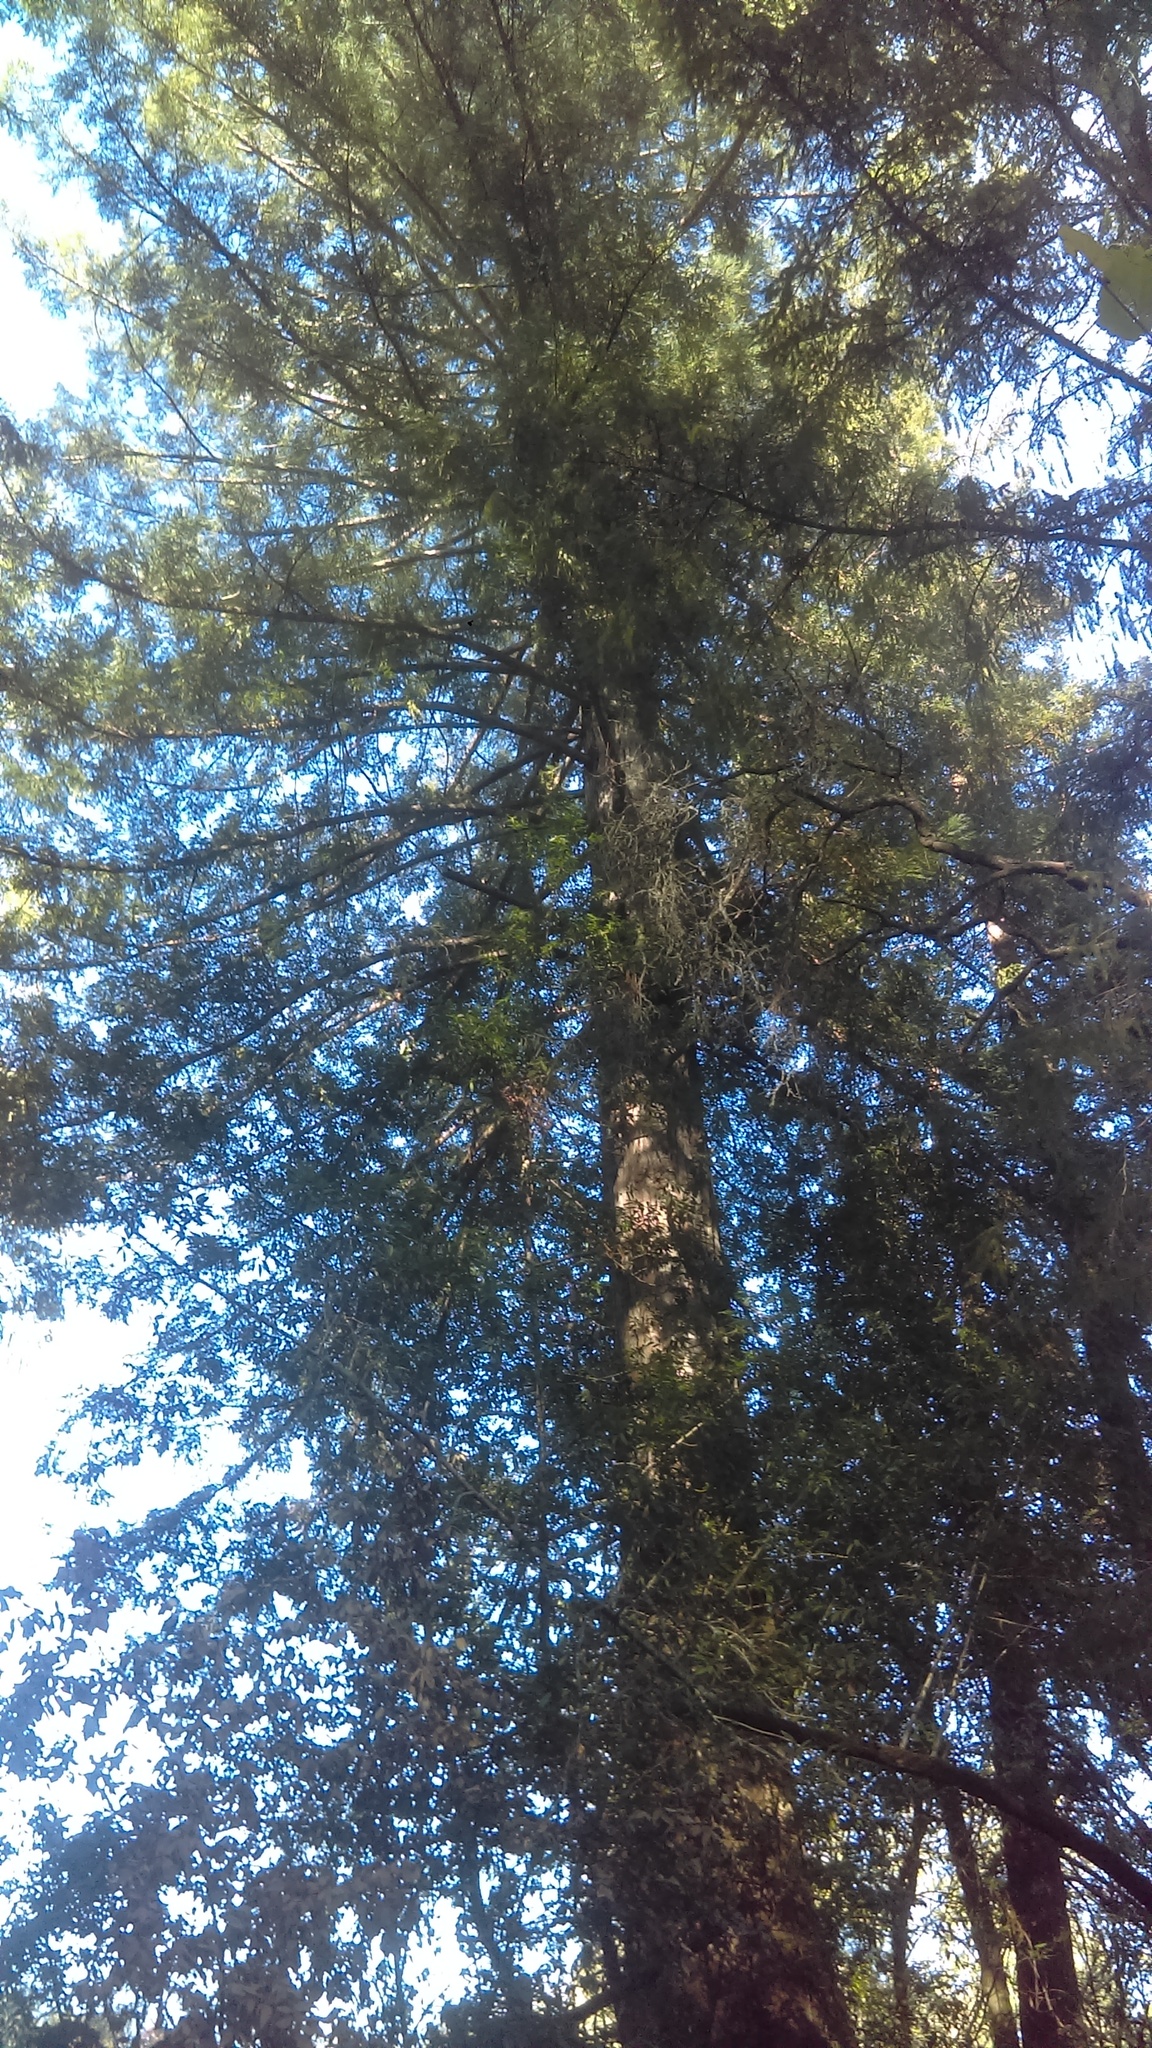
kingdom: Plantae
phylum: Tracheophyta
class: Pinopsida
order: Pinales
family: Cupressaceae
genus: Sequoia
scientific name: Sequoia sempervirens
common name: Coast redwood
